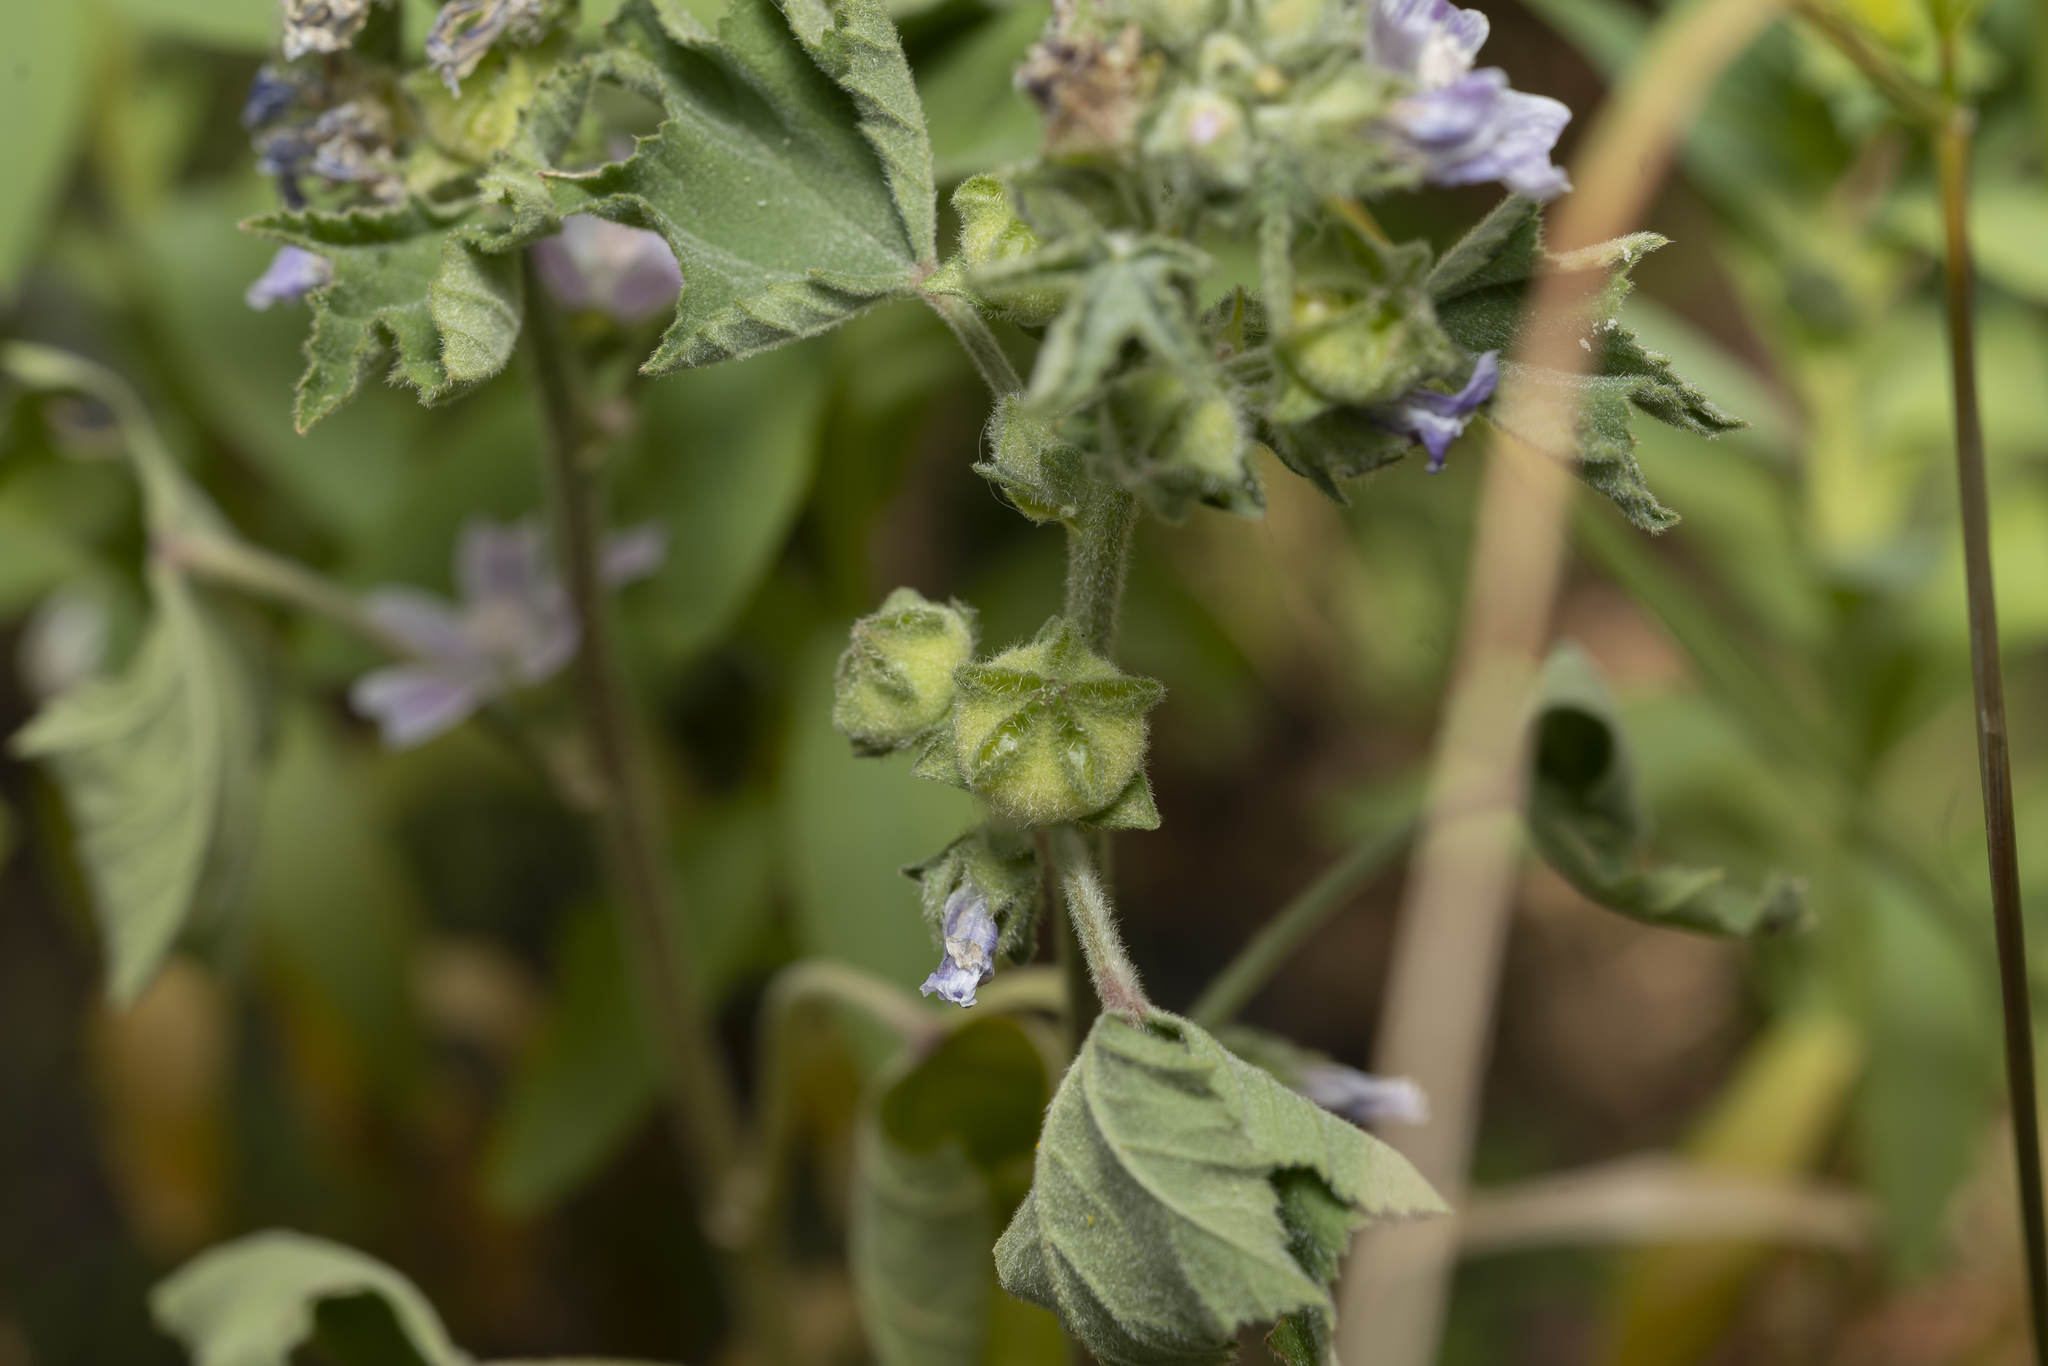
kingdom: Plantae
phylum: Tracheophyta
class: Magnoliopsida
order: Malvales
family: Malvaceae
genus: Malva
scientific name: Malva multiflora
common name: Cheeseweed
